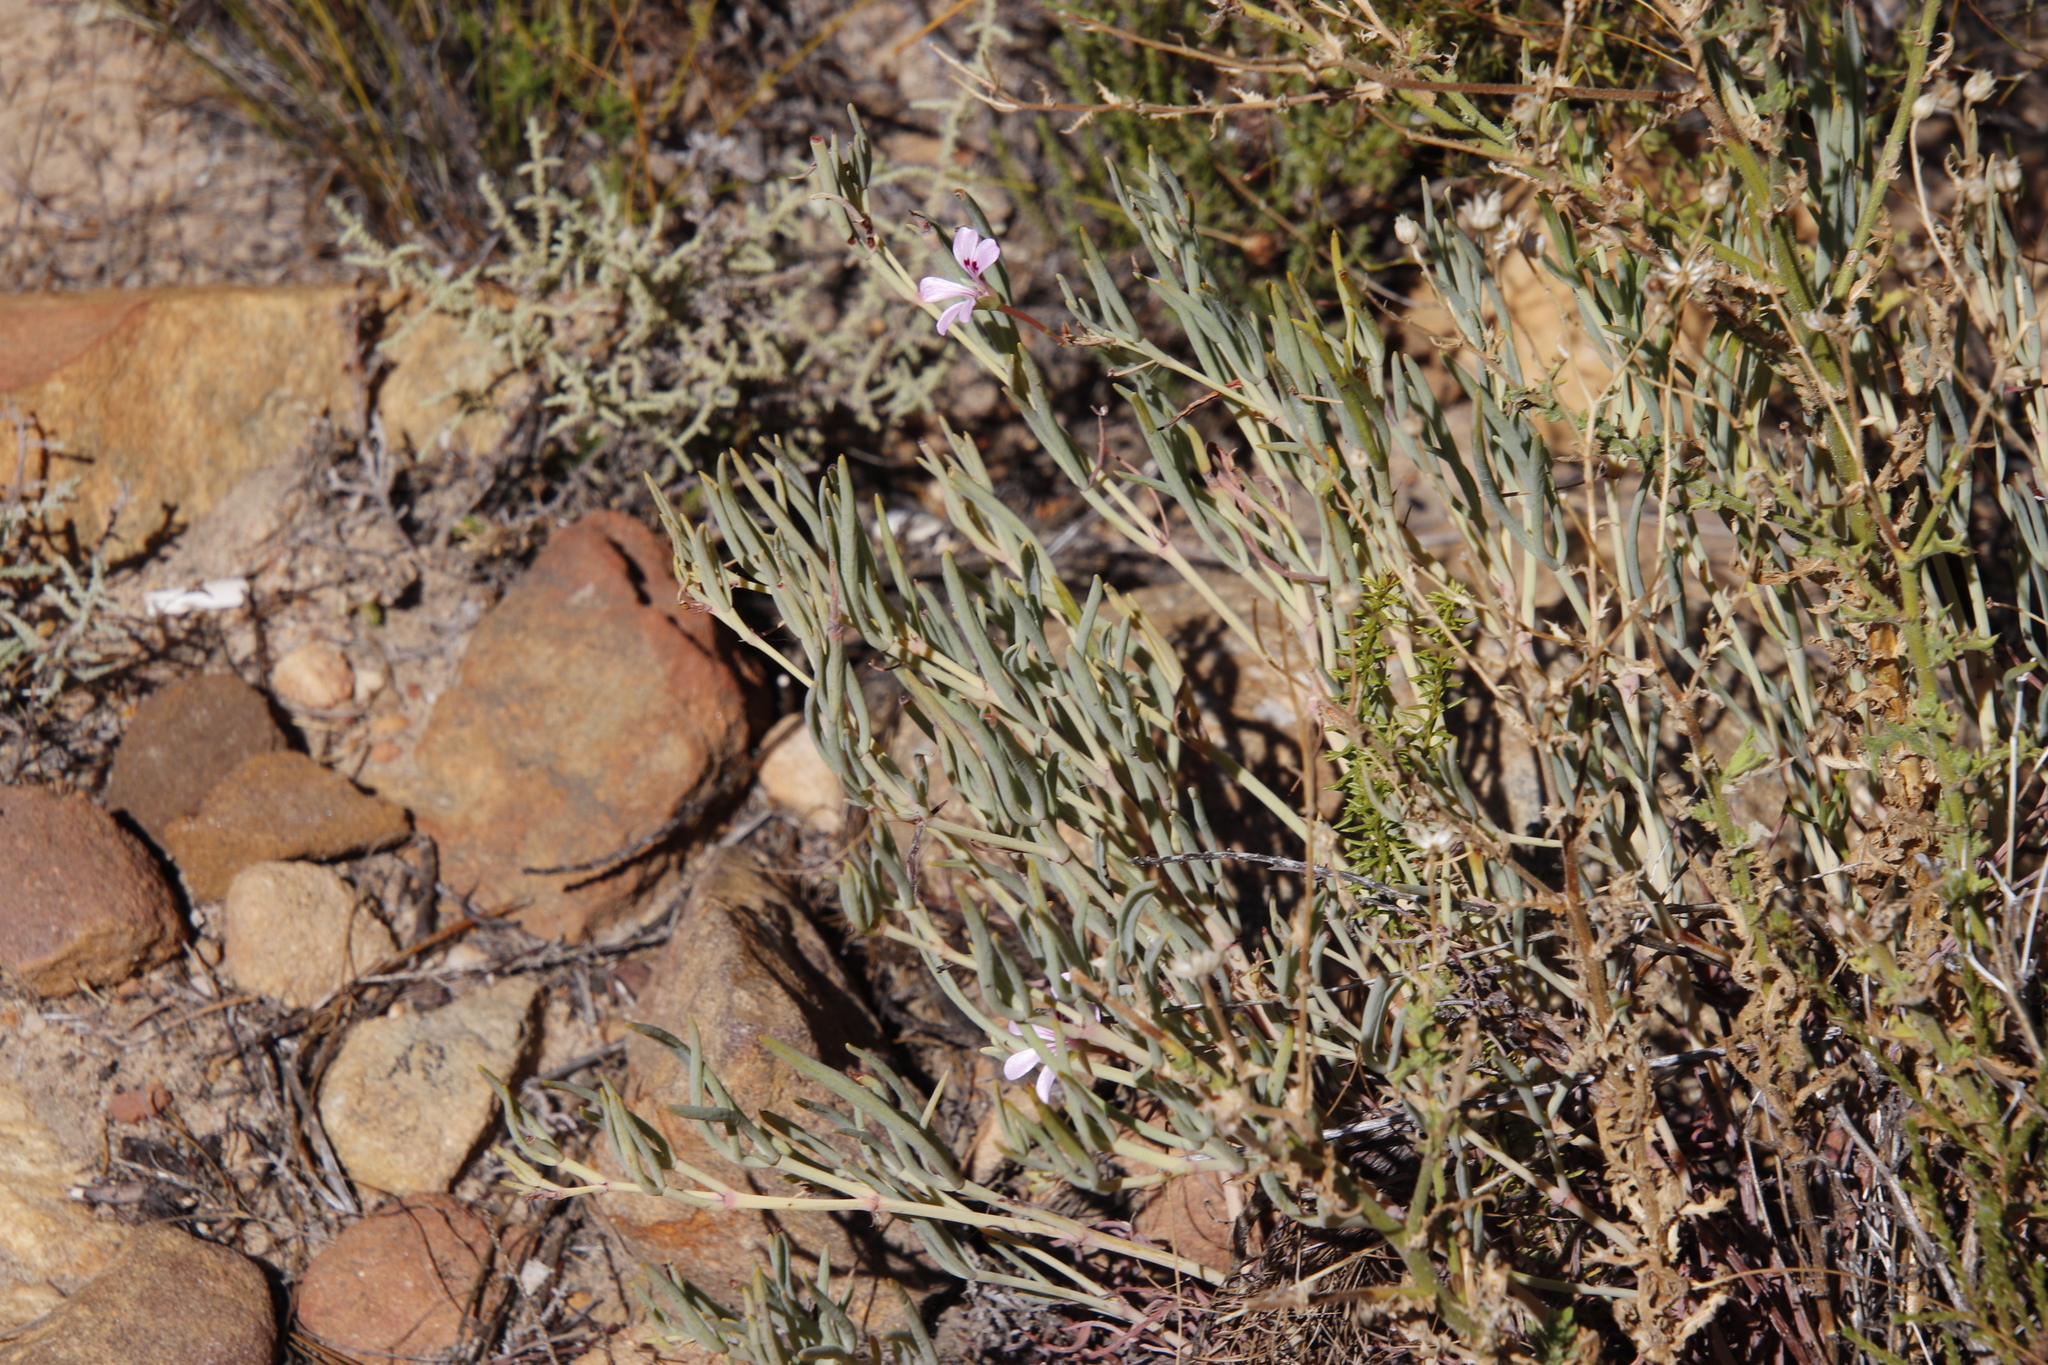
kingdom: Plantae
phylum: Tracheophyta
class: Magnoliopsida
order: Geraniales
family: Geraniaceae
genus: Pelargonium
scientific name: Pelargonium laevigatum
